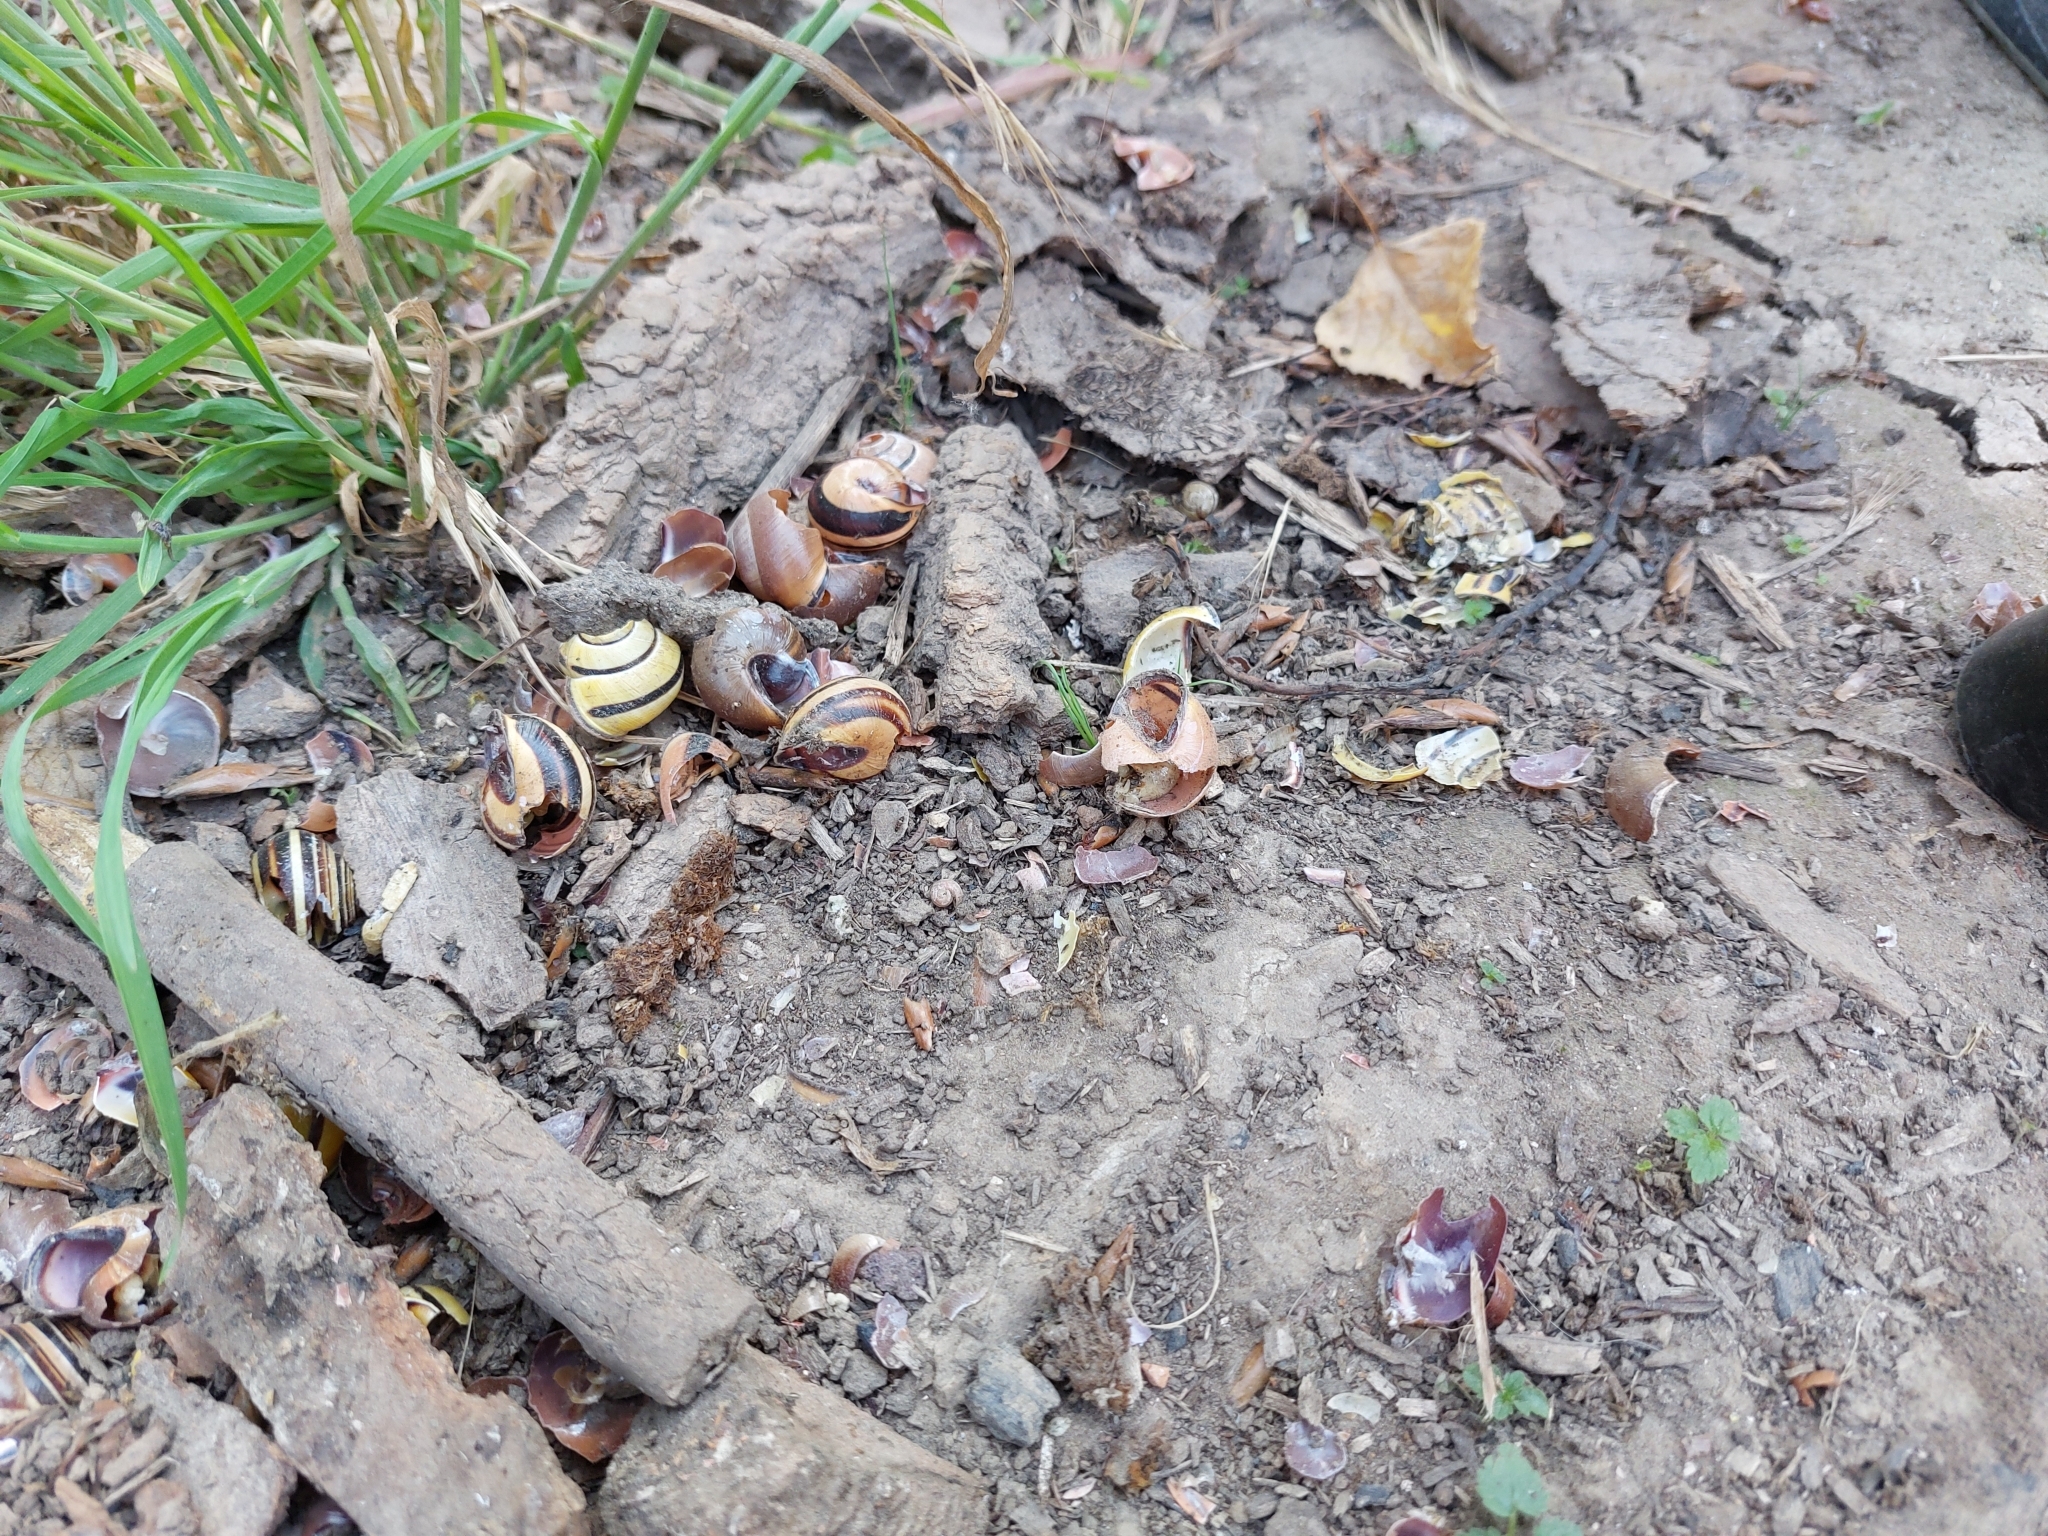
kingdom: Animalia
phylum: Mollusca
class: Gastropoda
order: Stylommatophora
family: Helicidae
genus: Cepaea
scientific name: Cepaea nemoralis
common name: Grovesnail
